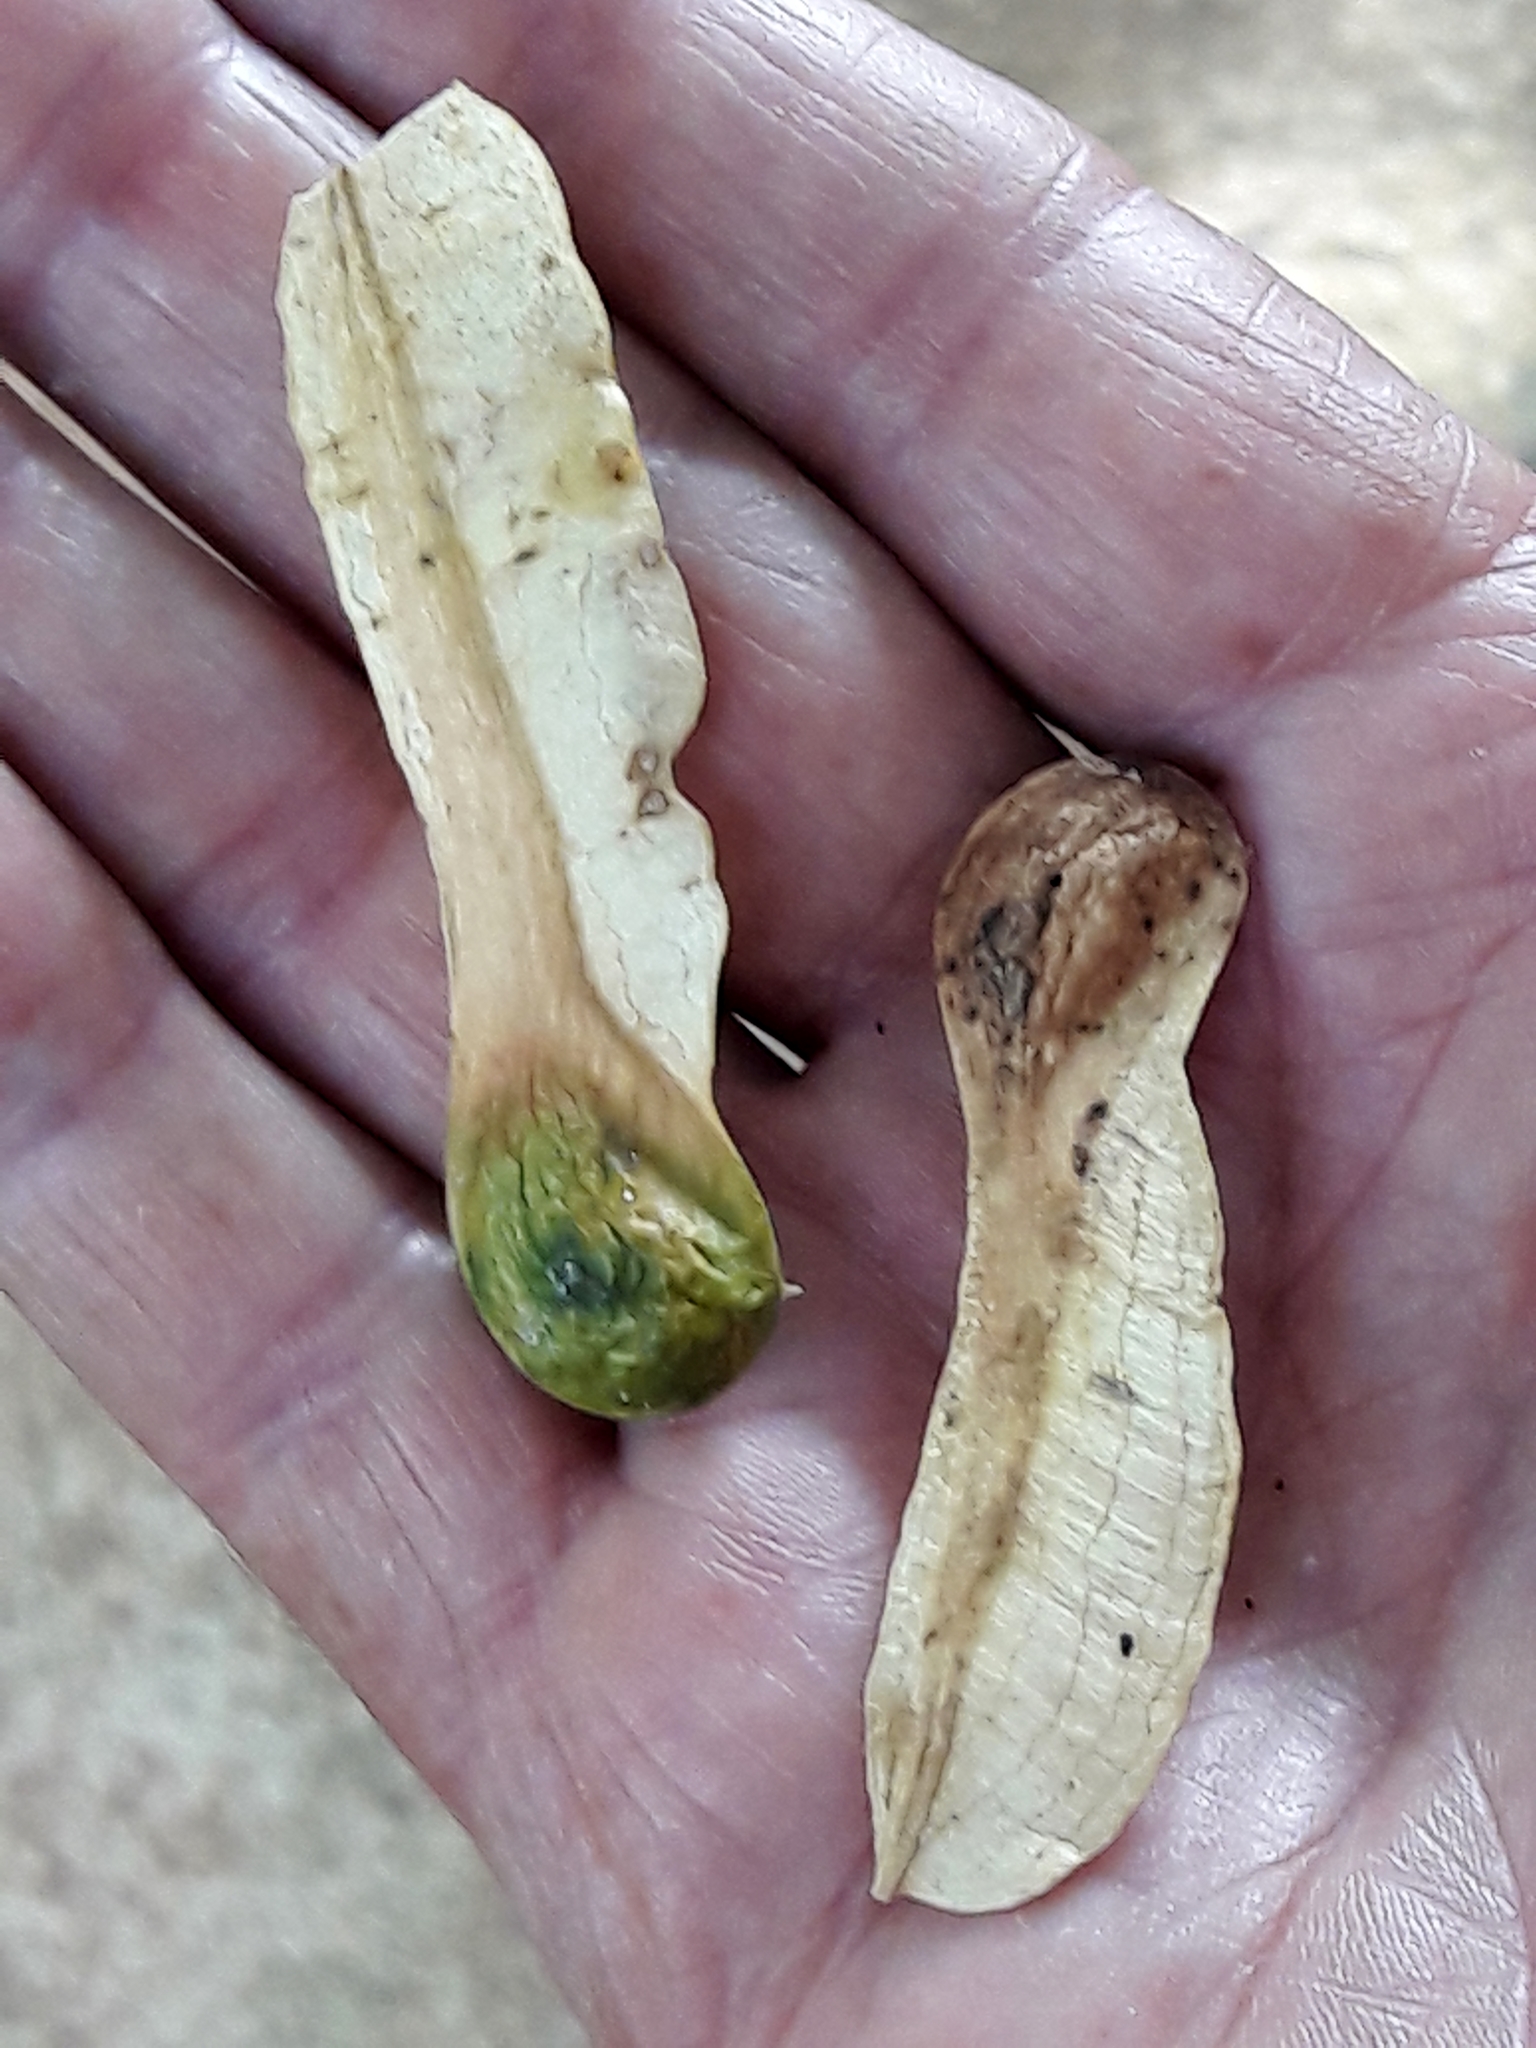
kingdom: Plantae
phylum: Tracheophyta
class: Magnoliopsida
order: Fabales
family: Fabaceae
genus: Myroxylon
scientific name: Myroxylon balsamum
